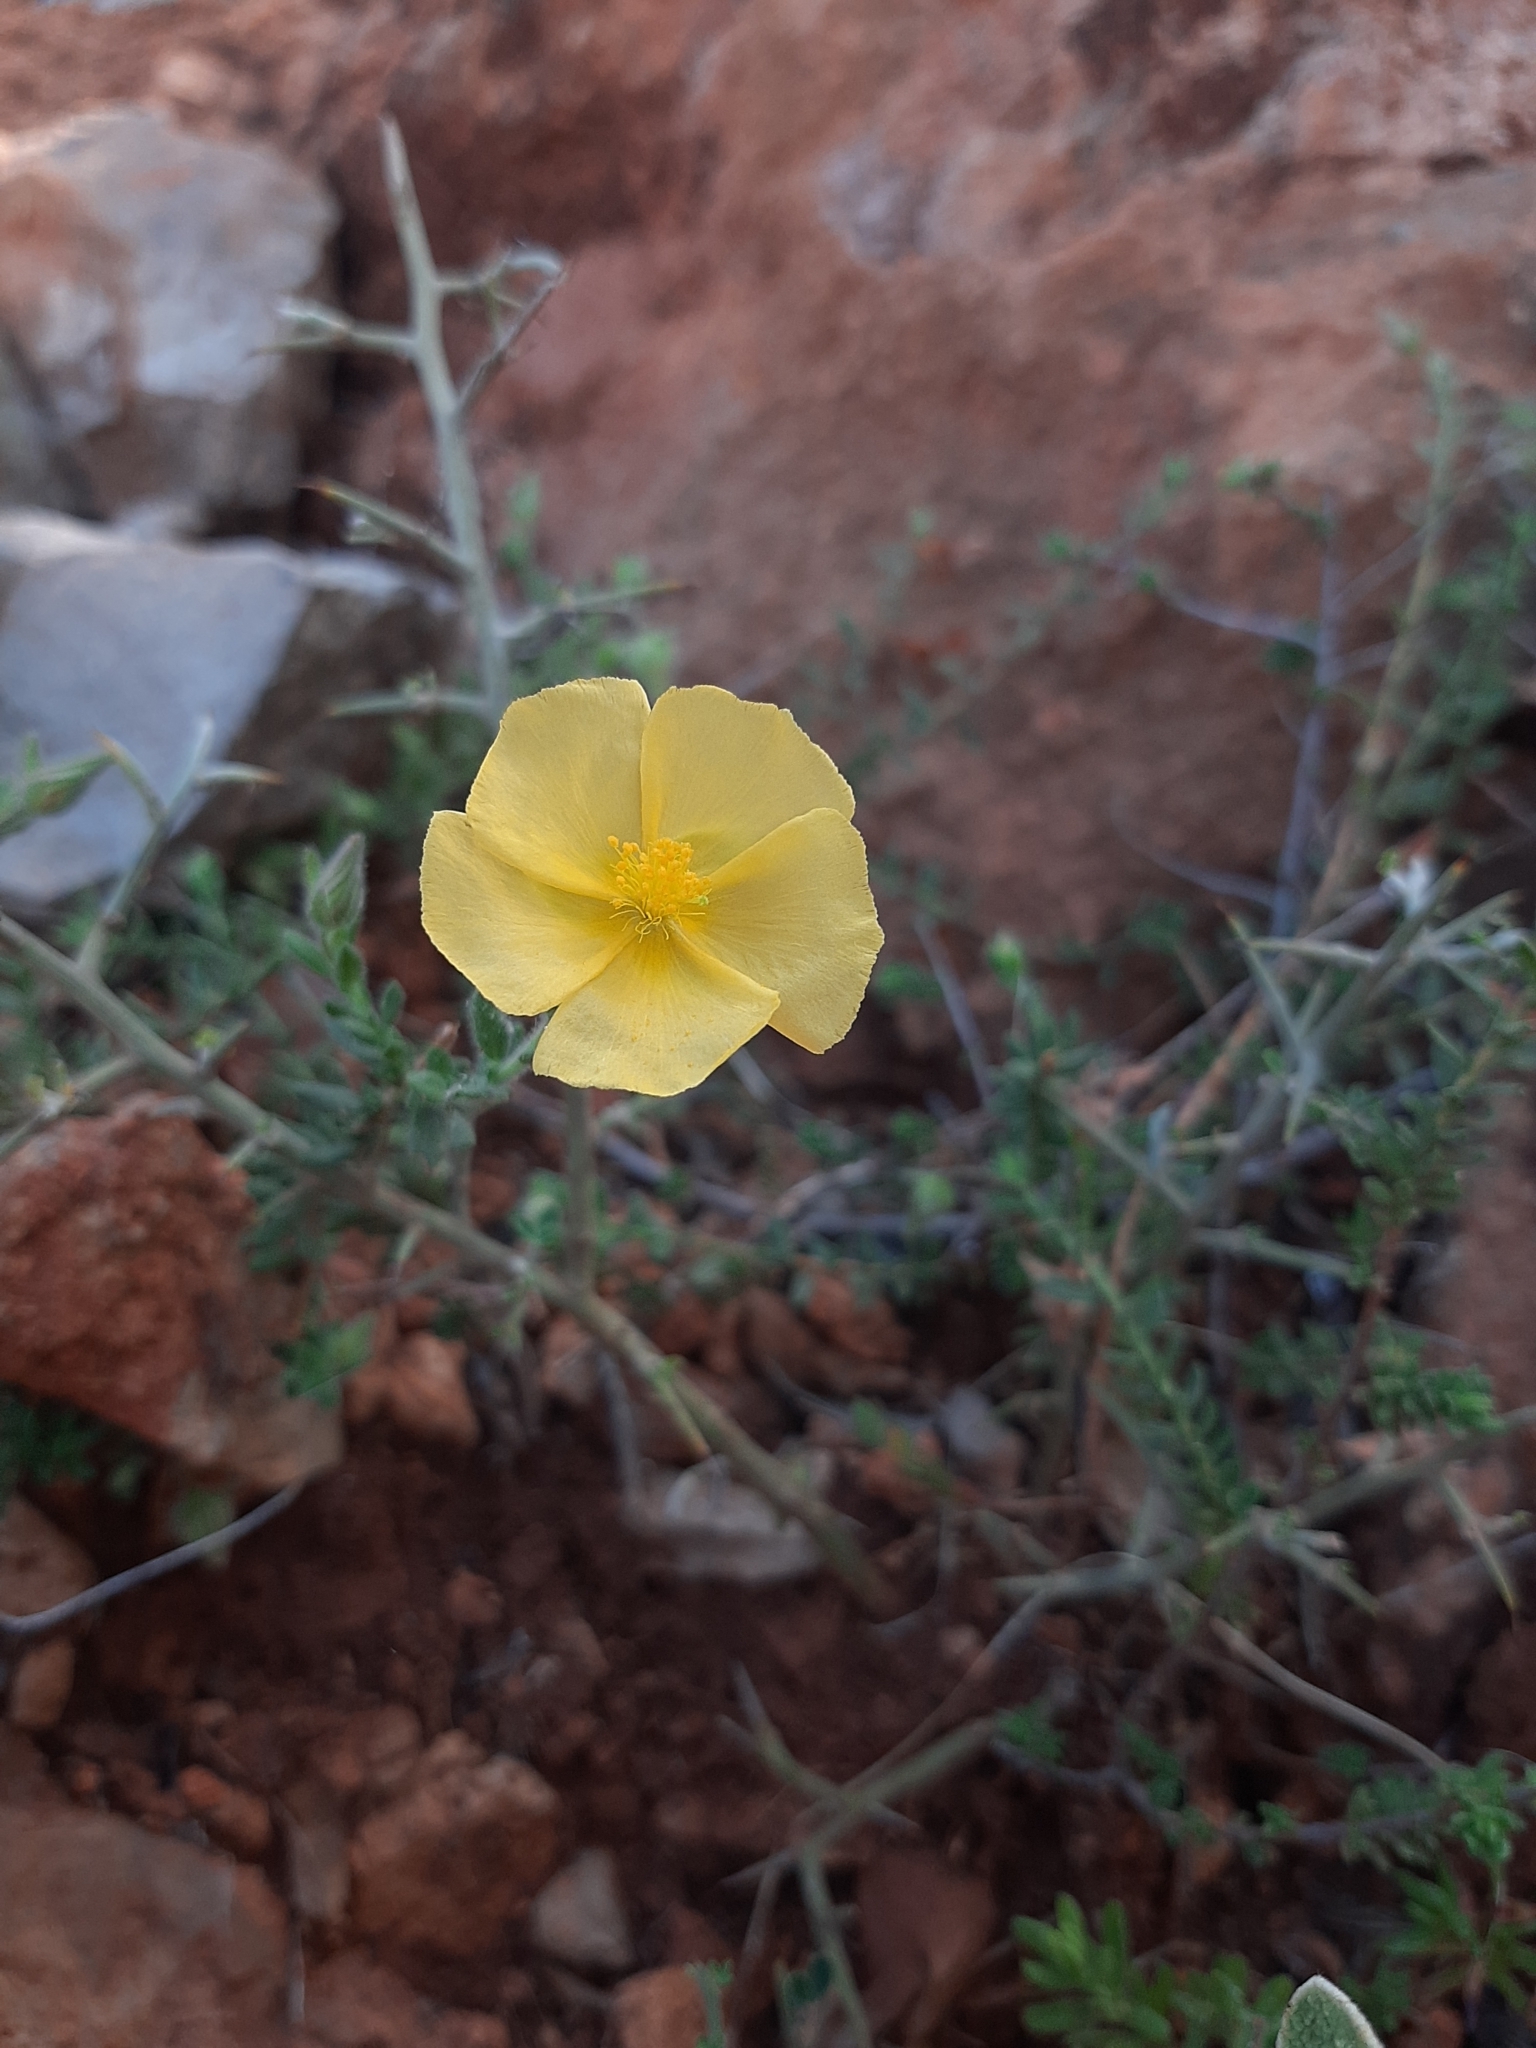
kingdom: Plantae
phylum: Tracheophyta
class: Magnoliopsida
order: Malvales
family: Cistaceae
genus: Fumana
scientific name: Fumana arabica
